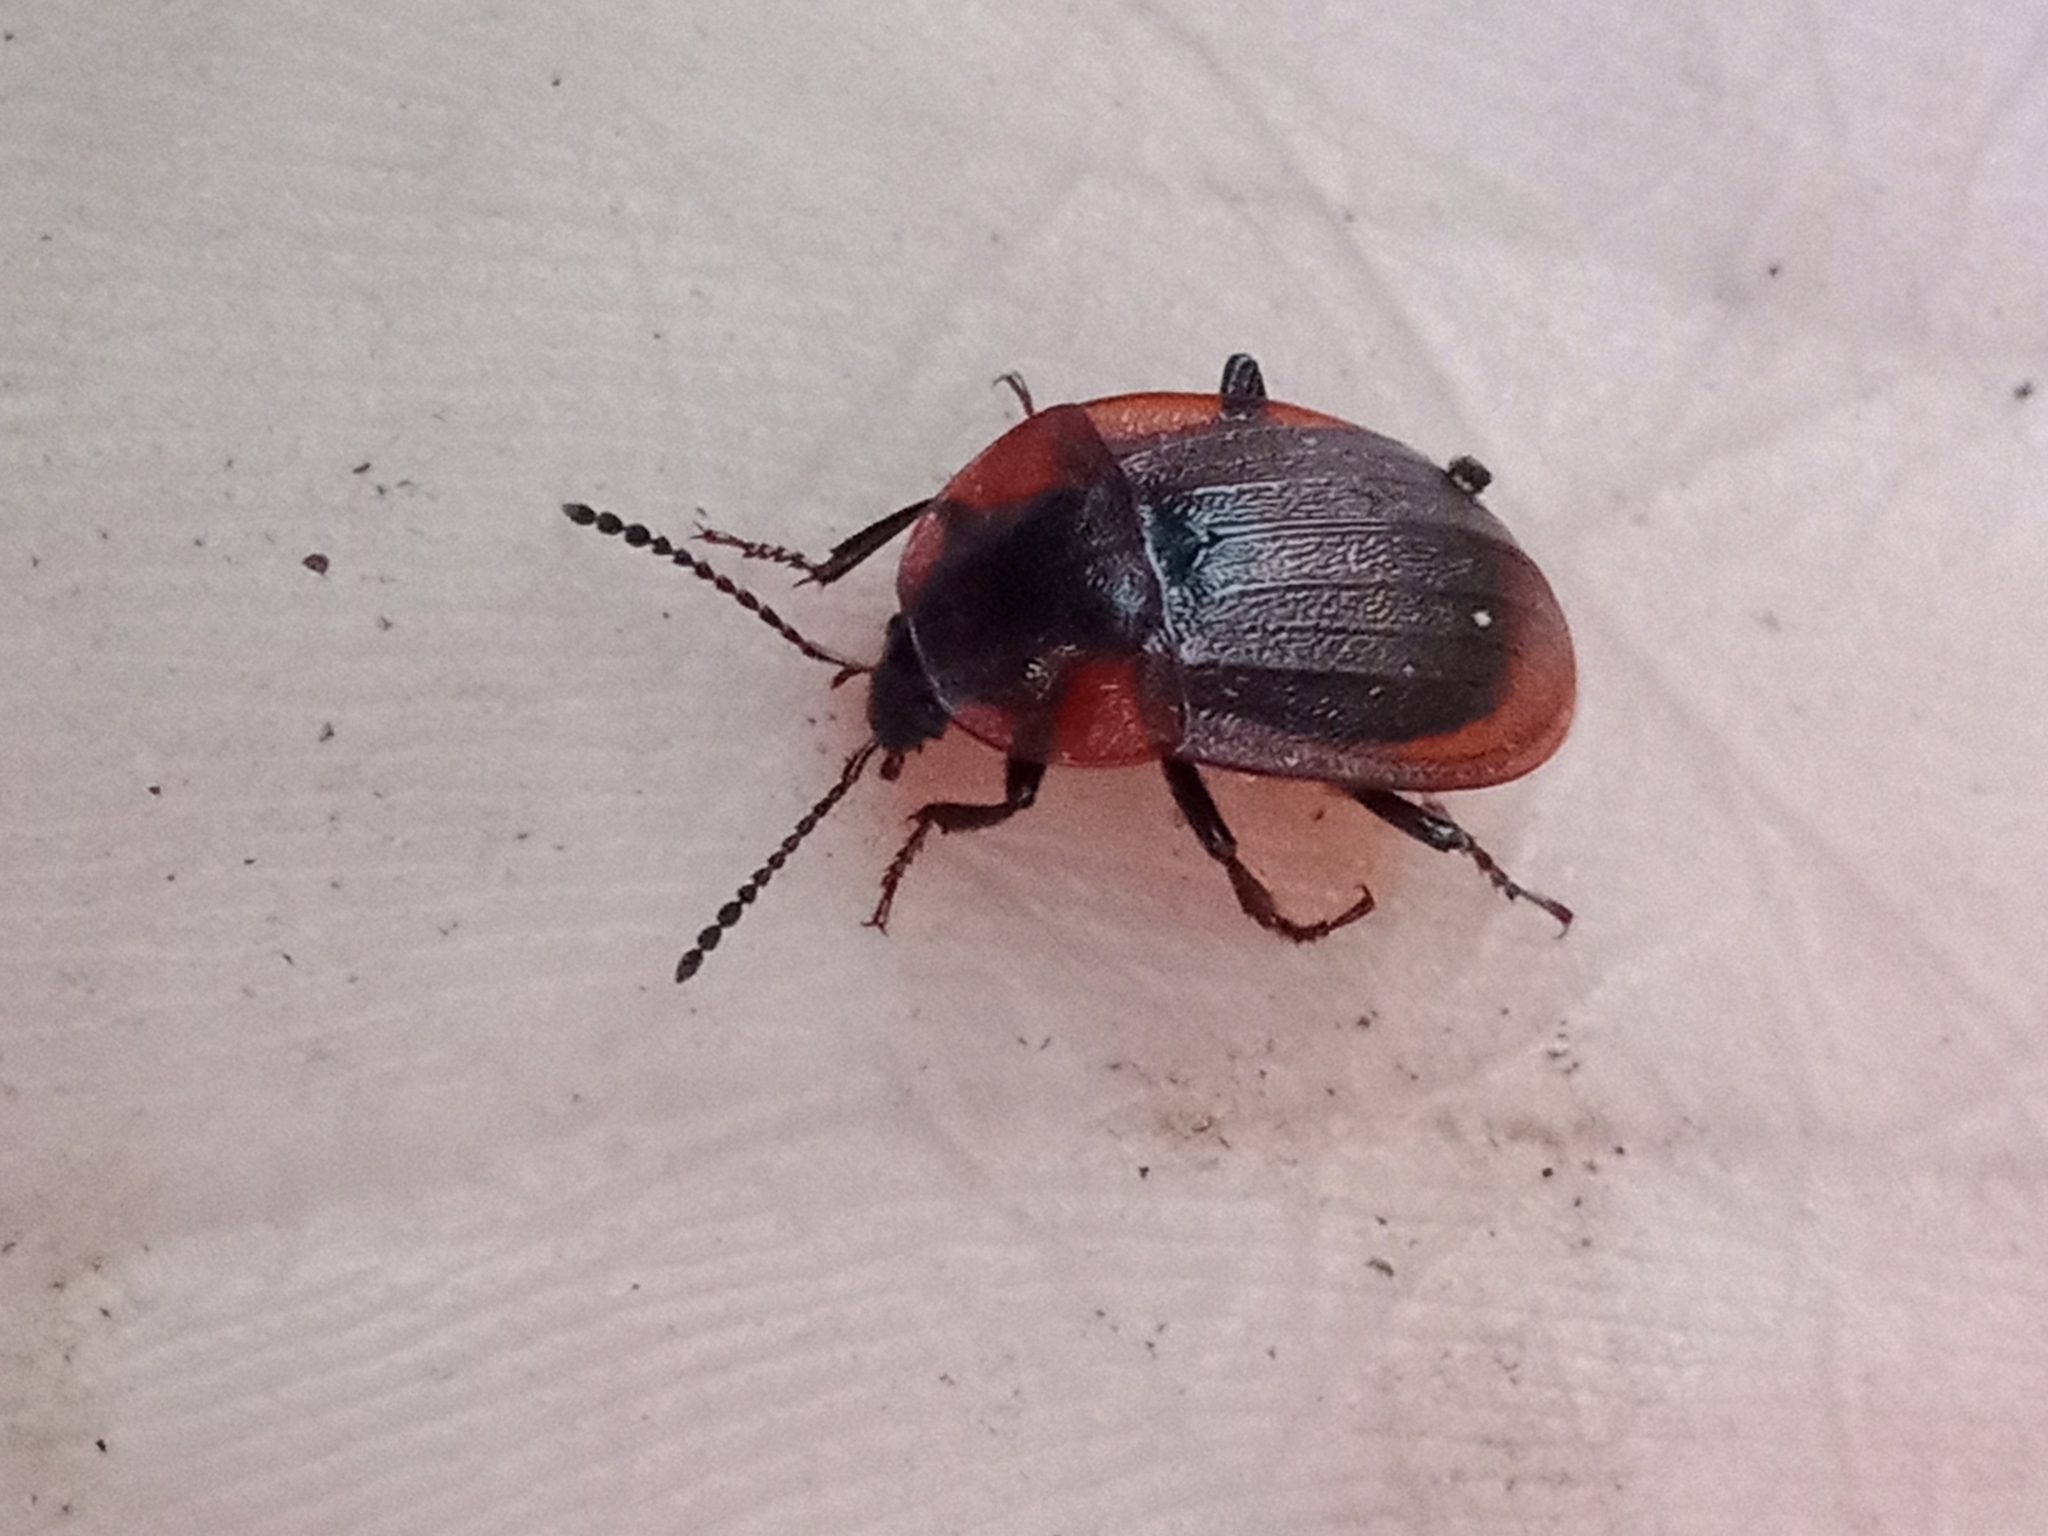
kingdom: Animalia
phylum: Arthropoda
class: Insecta
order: Coleoptera
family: Staphylinidae
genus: Silpha
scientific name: Silpha atrata
